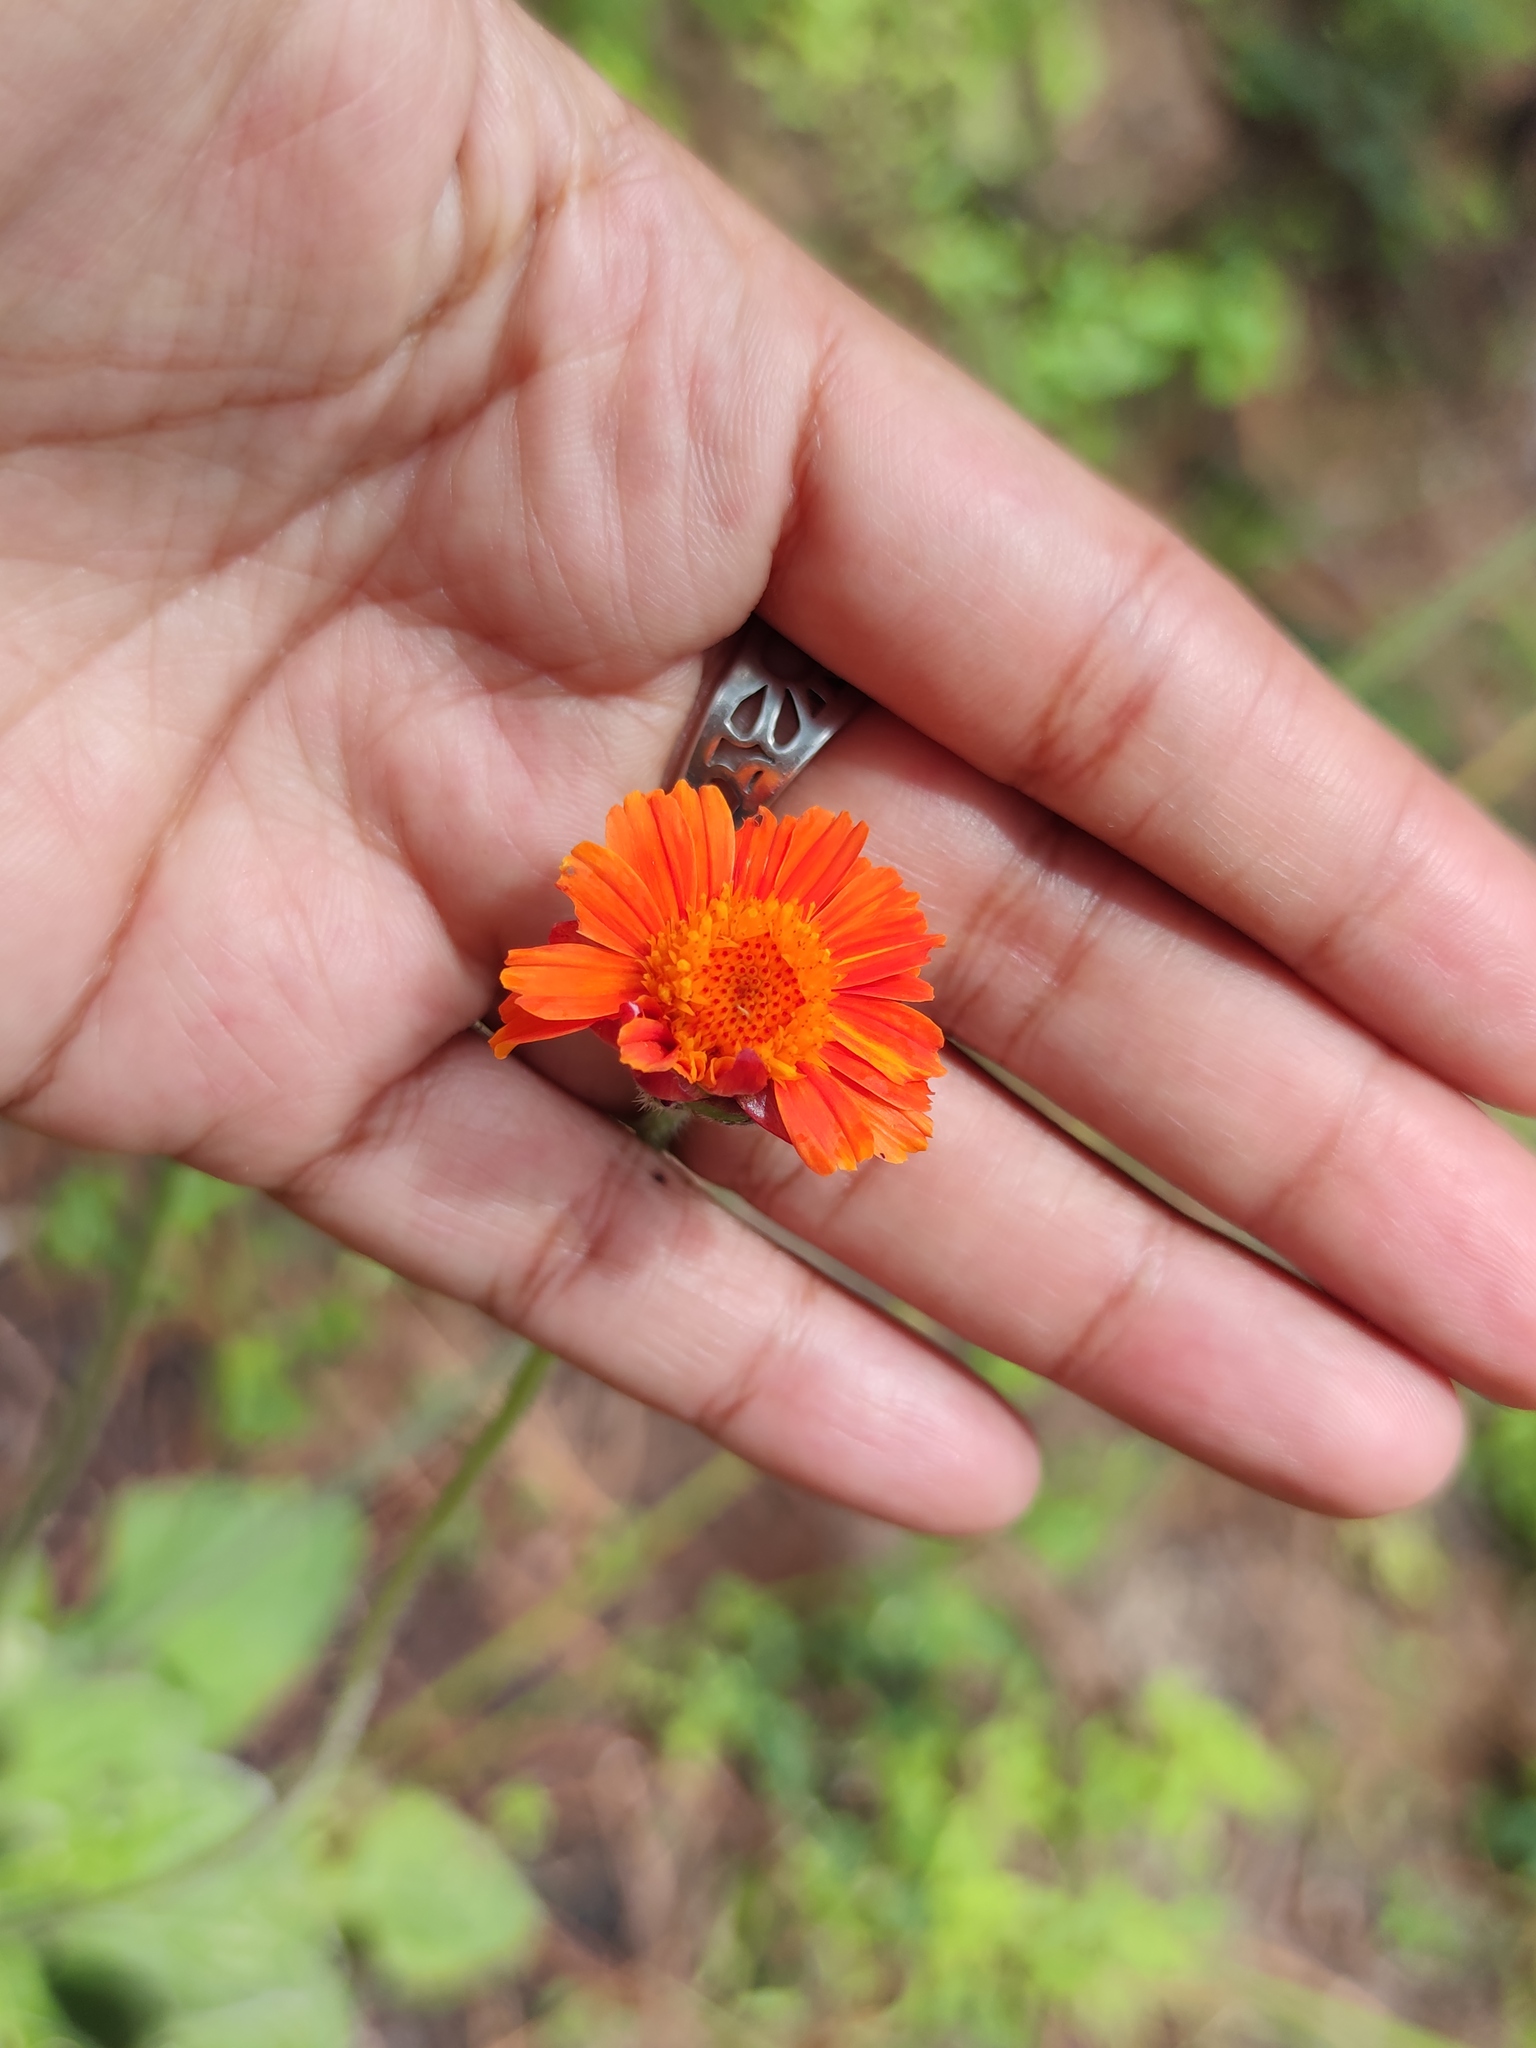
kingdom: Plantae
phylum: Tracheophyta
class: Magnoliopsida
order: Asterales
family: Asteraceae
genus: Calea
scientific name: Calea
